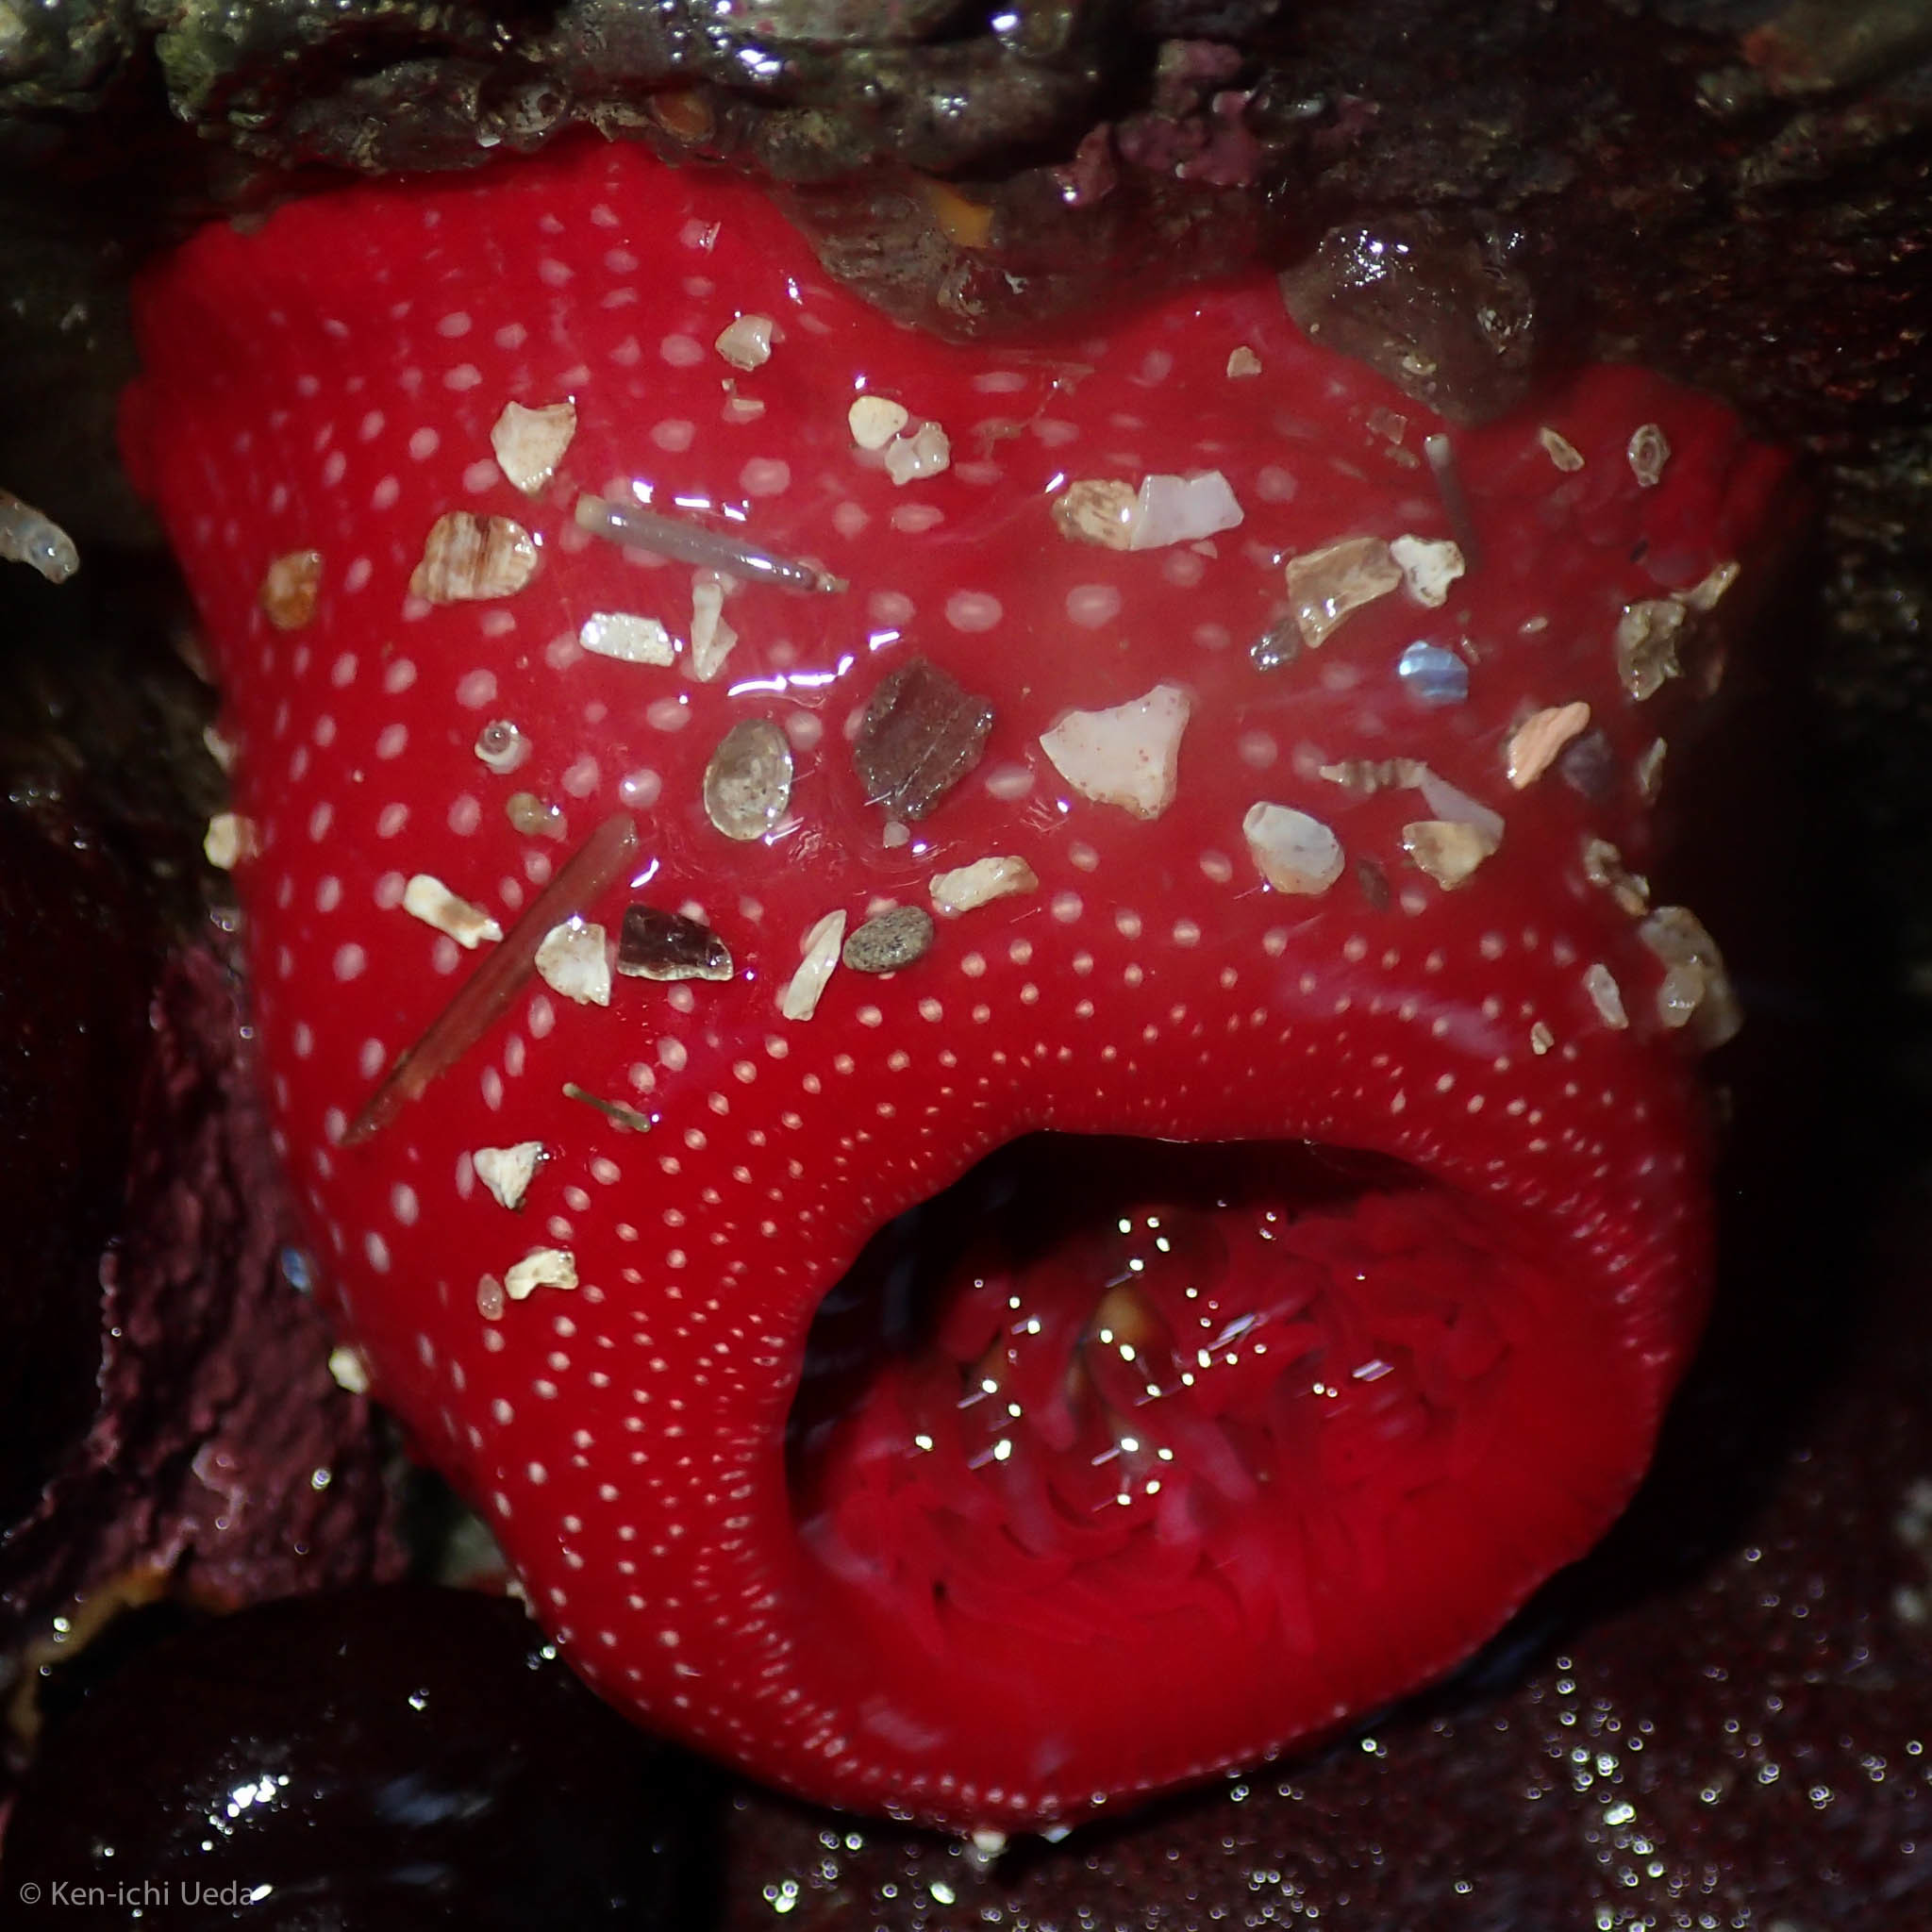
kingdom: Animalia
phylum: Cnidaria
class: Anthozoa
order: Actiniaria
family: Actiniidae
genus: Cribrinopsis
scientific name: Cribrinopsis albopunctata
